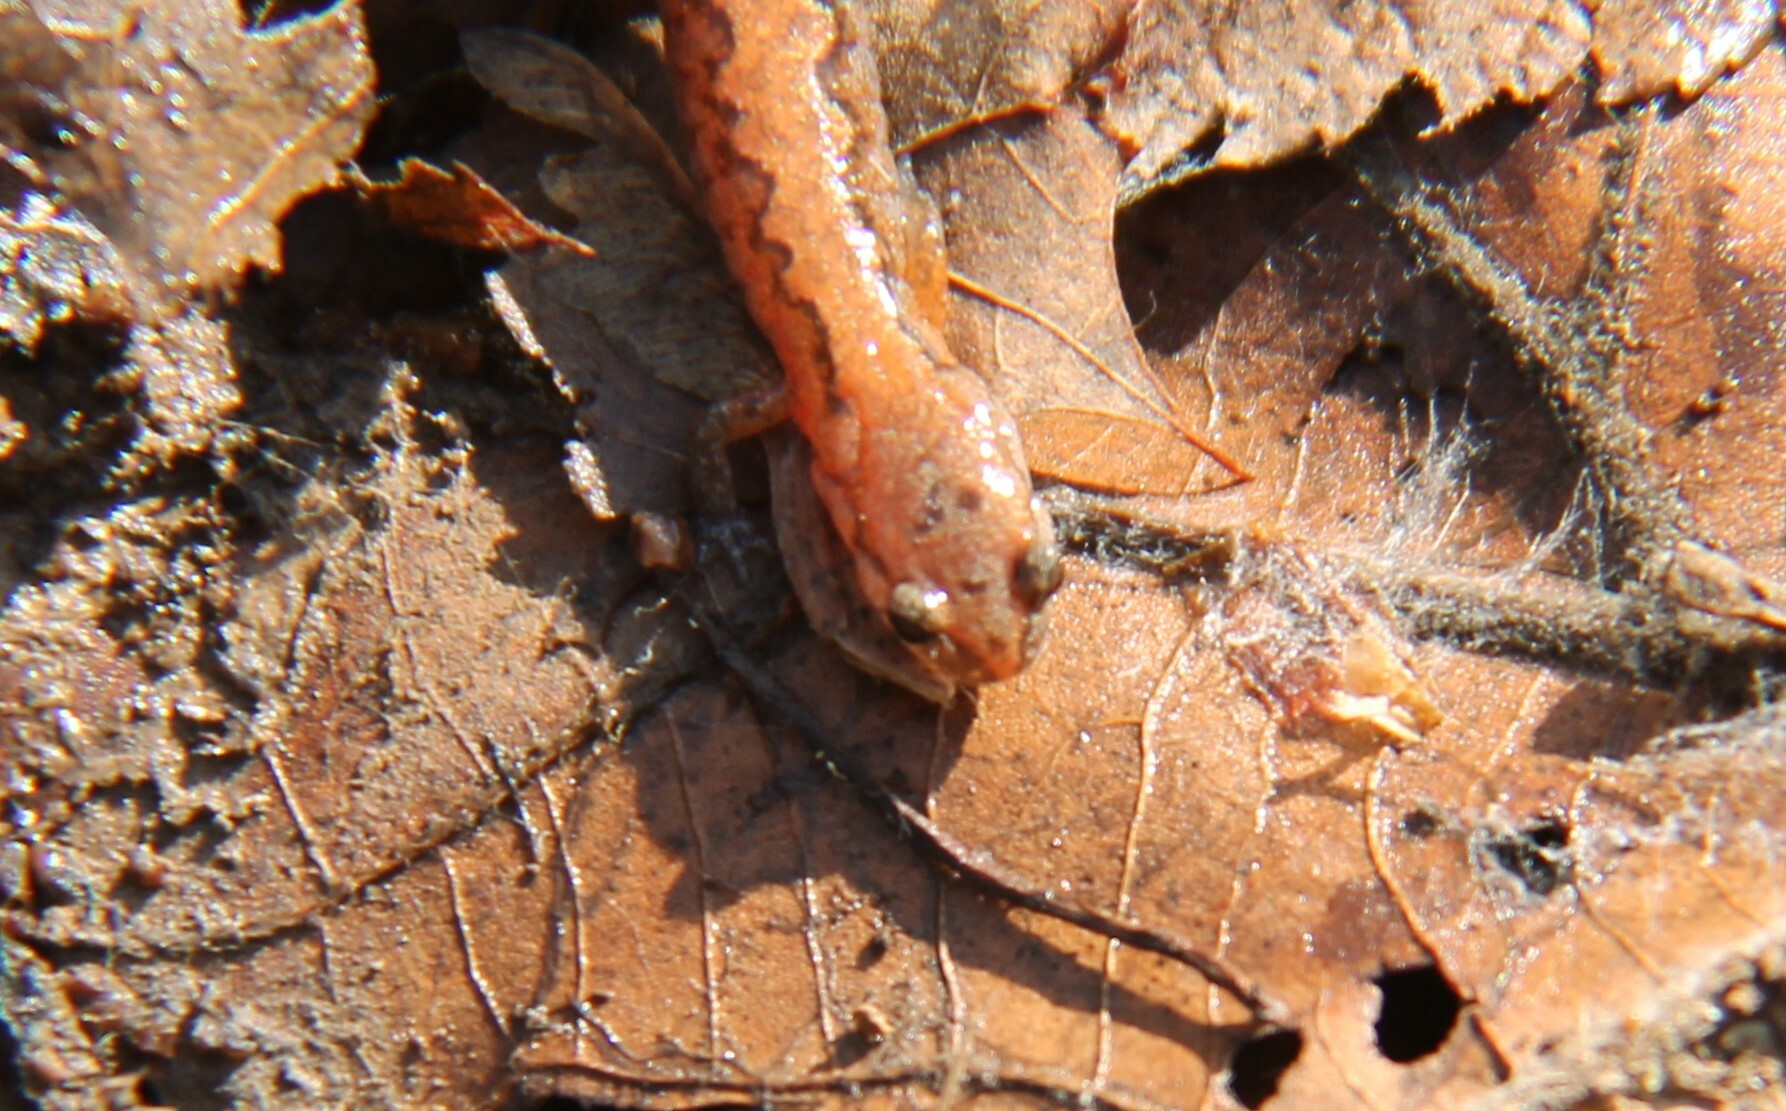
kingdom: Animalia
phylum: Chordata
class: Amphibia
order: Caudata
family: Plethodontidae
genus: Plethodon
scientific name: Plethodon dorsalis
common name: Northern zigzag salamander
